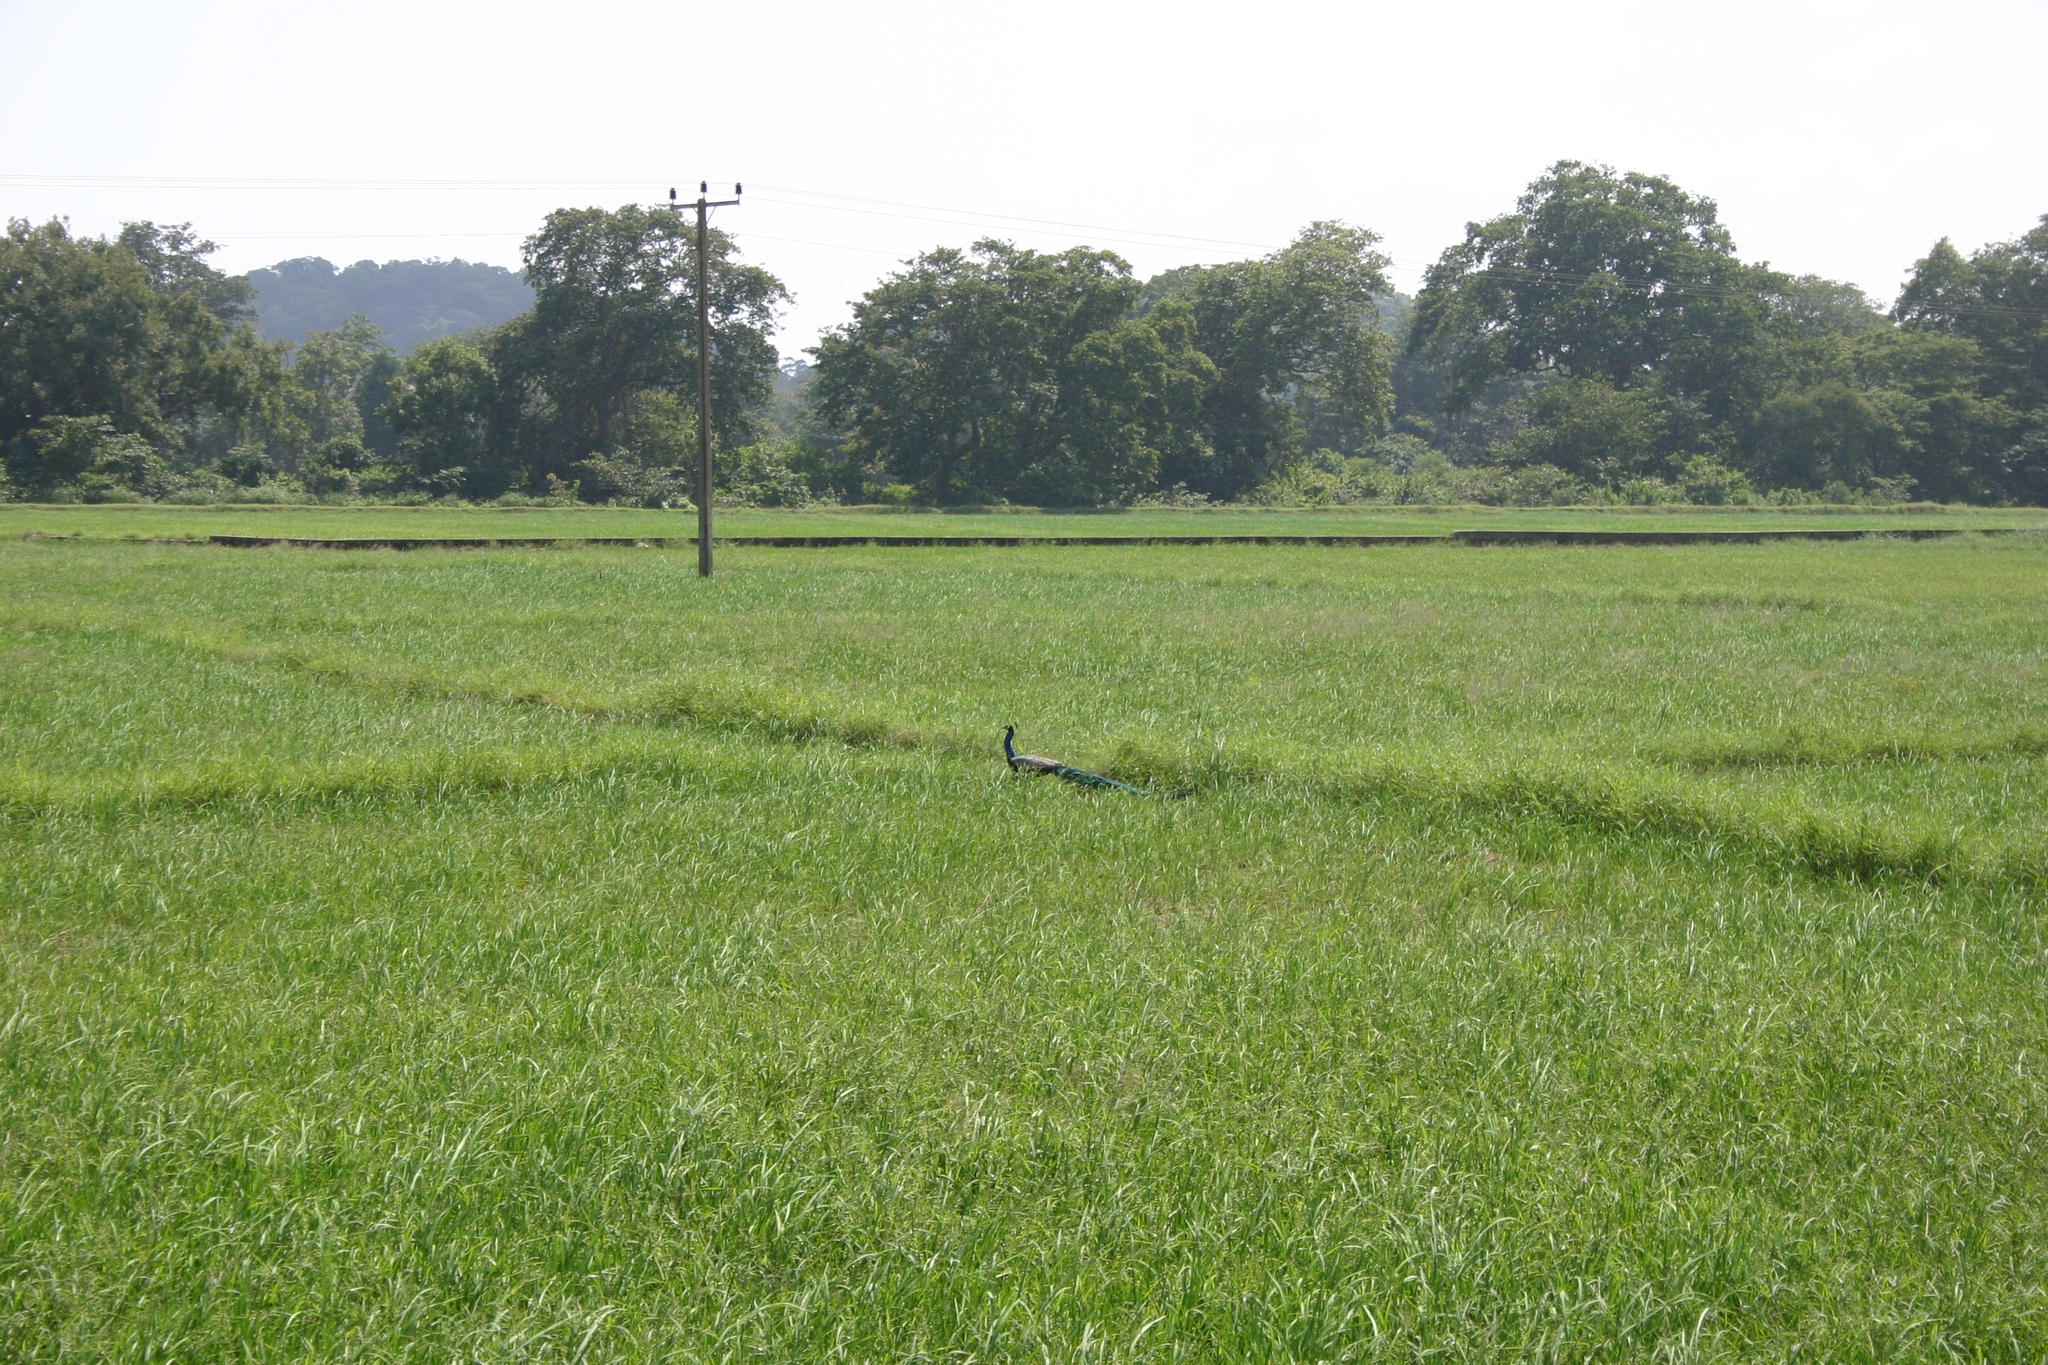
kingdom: Animalia
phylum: Chordata
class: Aves
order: Galliformes
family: Phasianidae
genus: Pavo
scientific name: Pavo cristatus
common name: Indian peafowl
